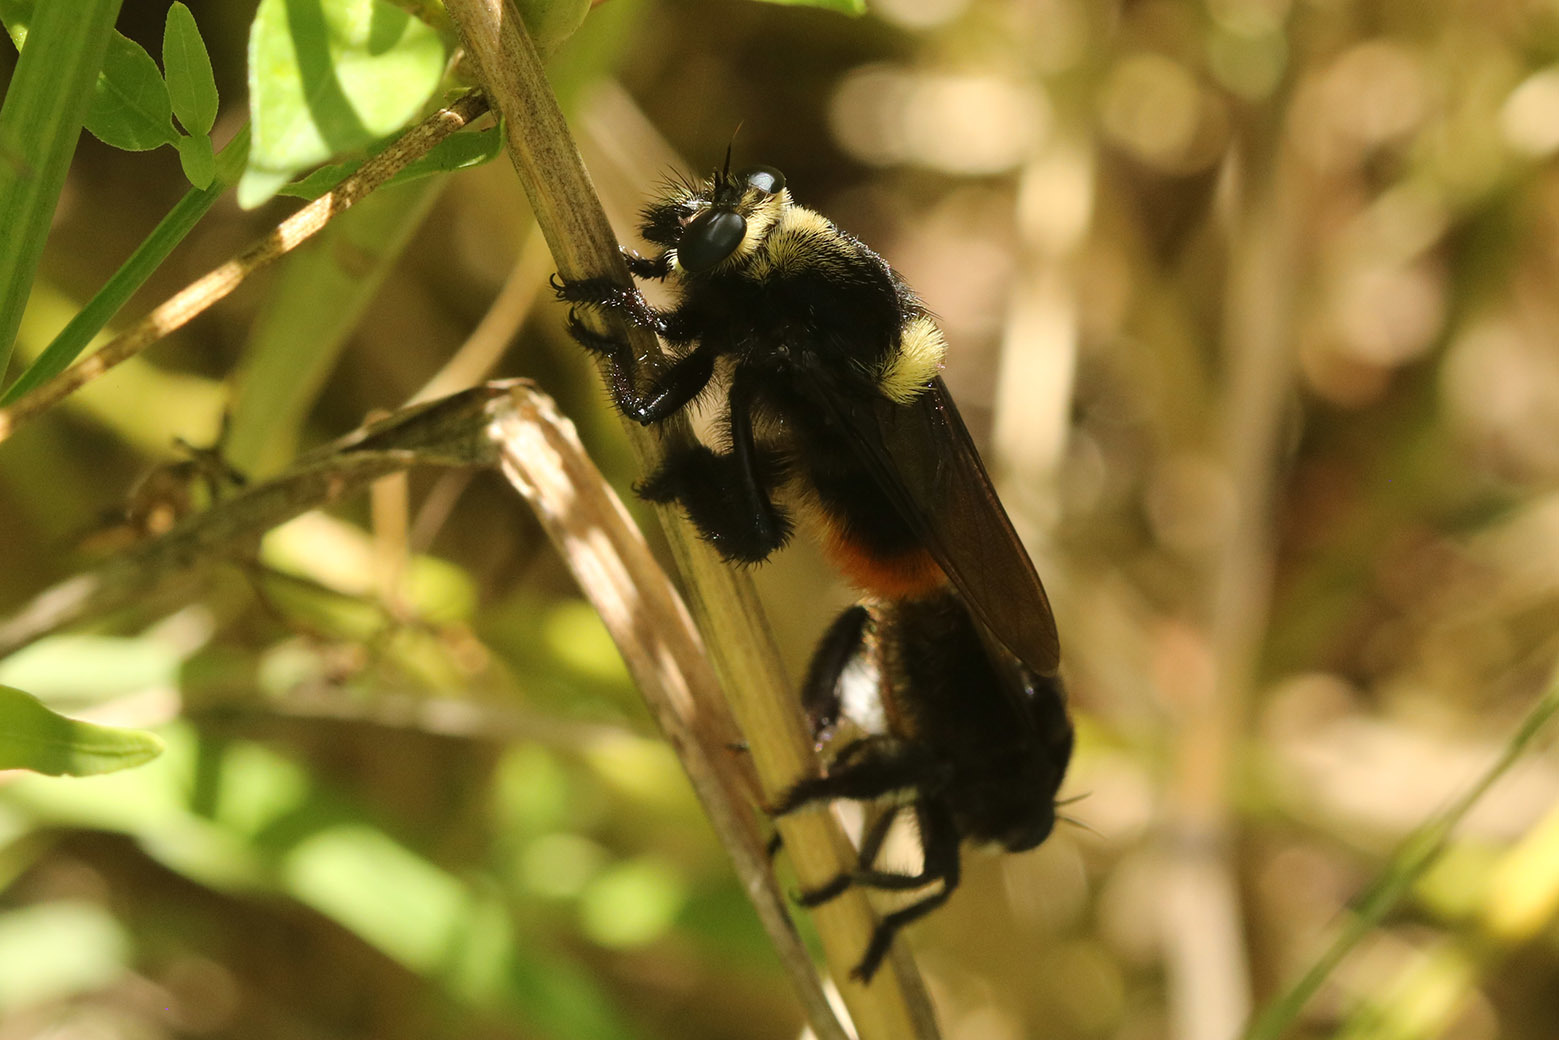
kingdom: Animalia
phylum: Arthropoda
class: Insecta
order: Diptera
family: Asilidae
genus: Mallophora
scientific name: Mallophora ruficauda
